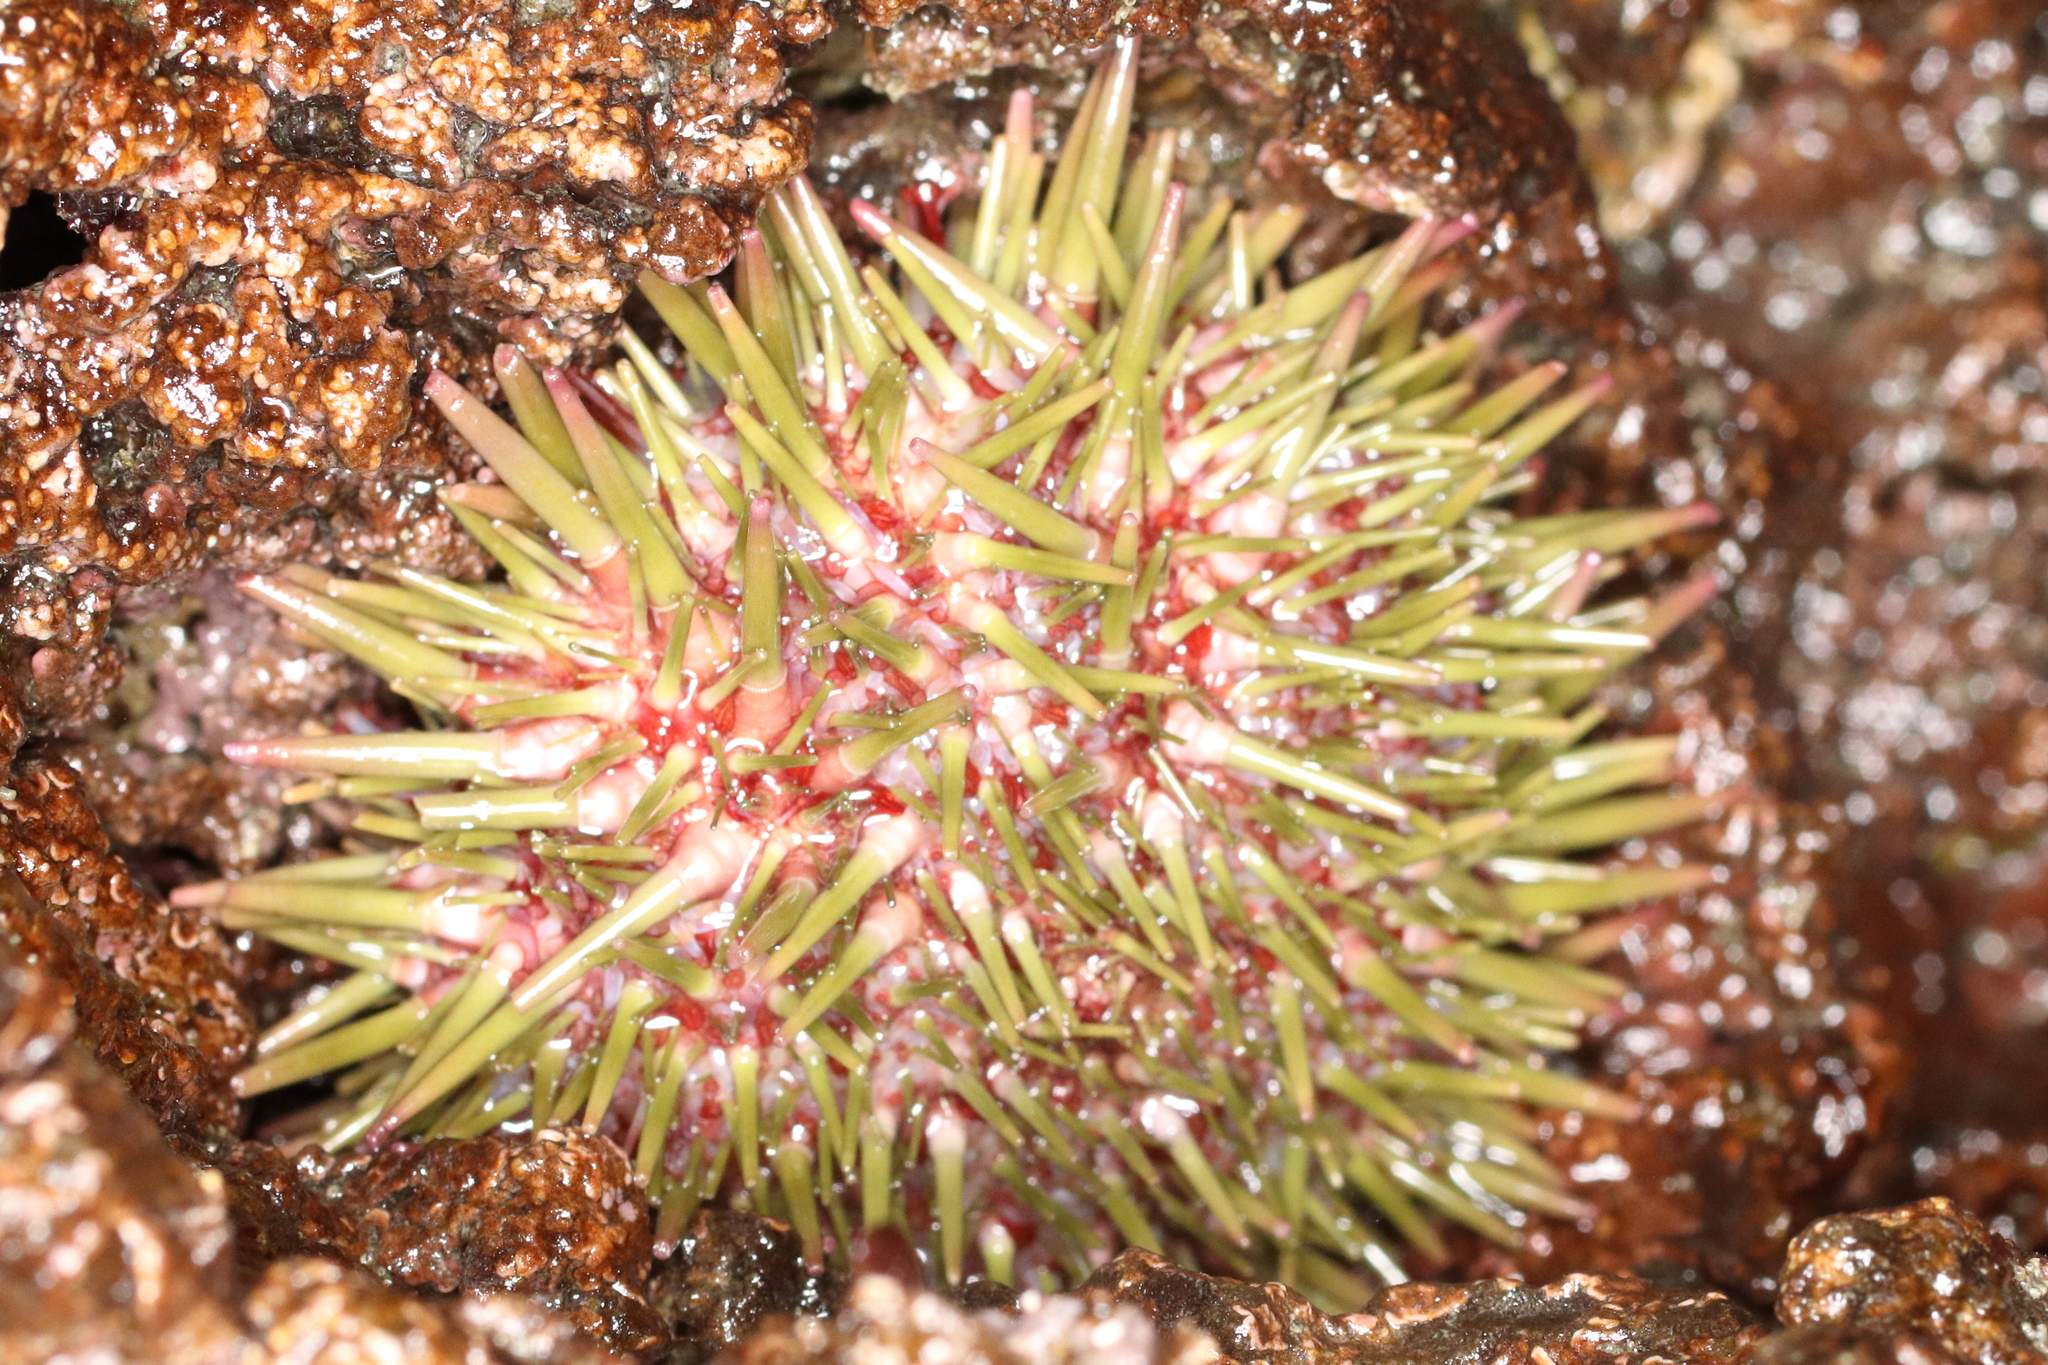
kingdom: Animalia
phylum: Echinodermata
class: Echinoidea
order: Camarodonta
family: Strongylocentrotidae
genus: Strongylocentrotus
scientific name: Strongylocentrotus purpuratus
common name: Purple sea urchin
